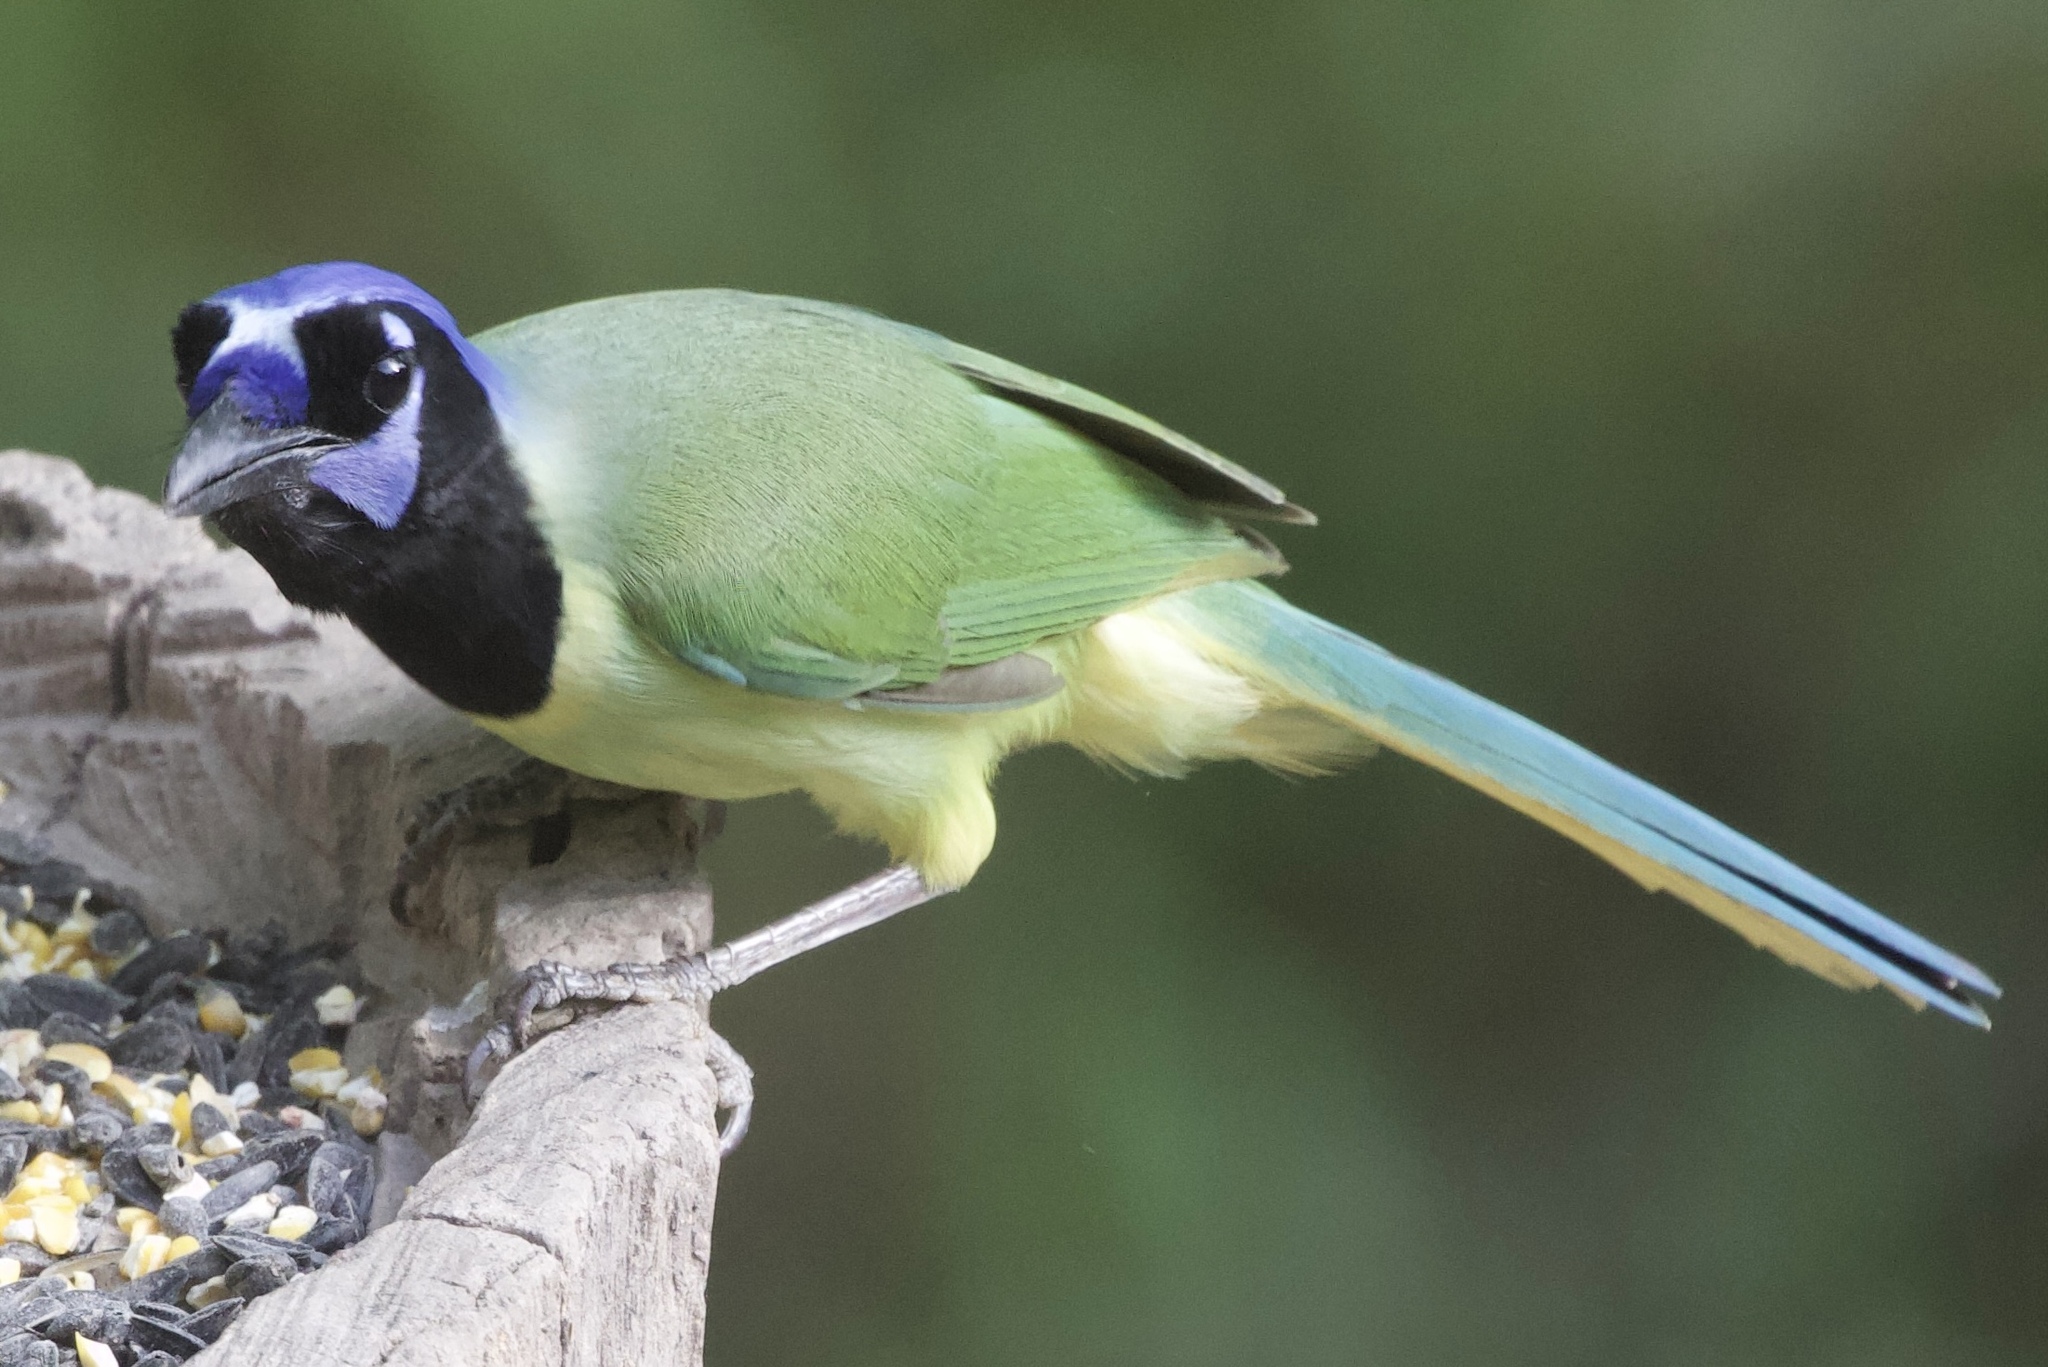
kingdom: Animalia
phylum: Chordata
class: Aves
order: Passeriformes
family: Corvidae
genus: Cyanocorax
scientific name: Cyanocorax yncas
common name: Green jay
